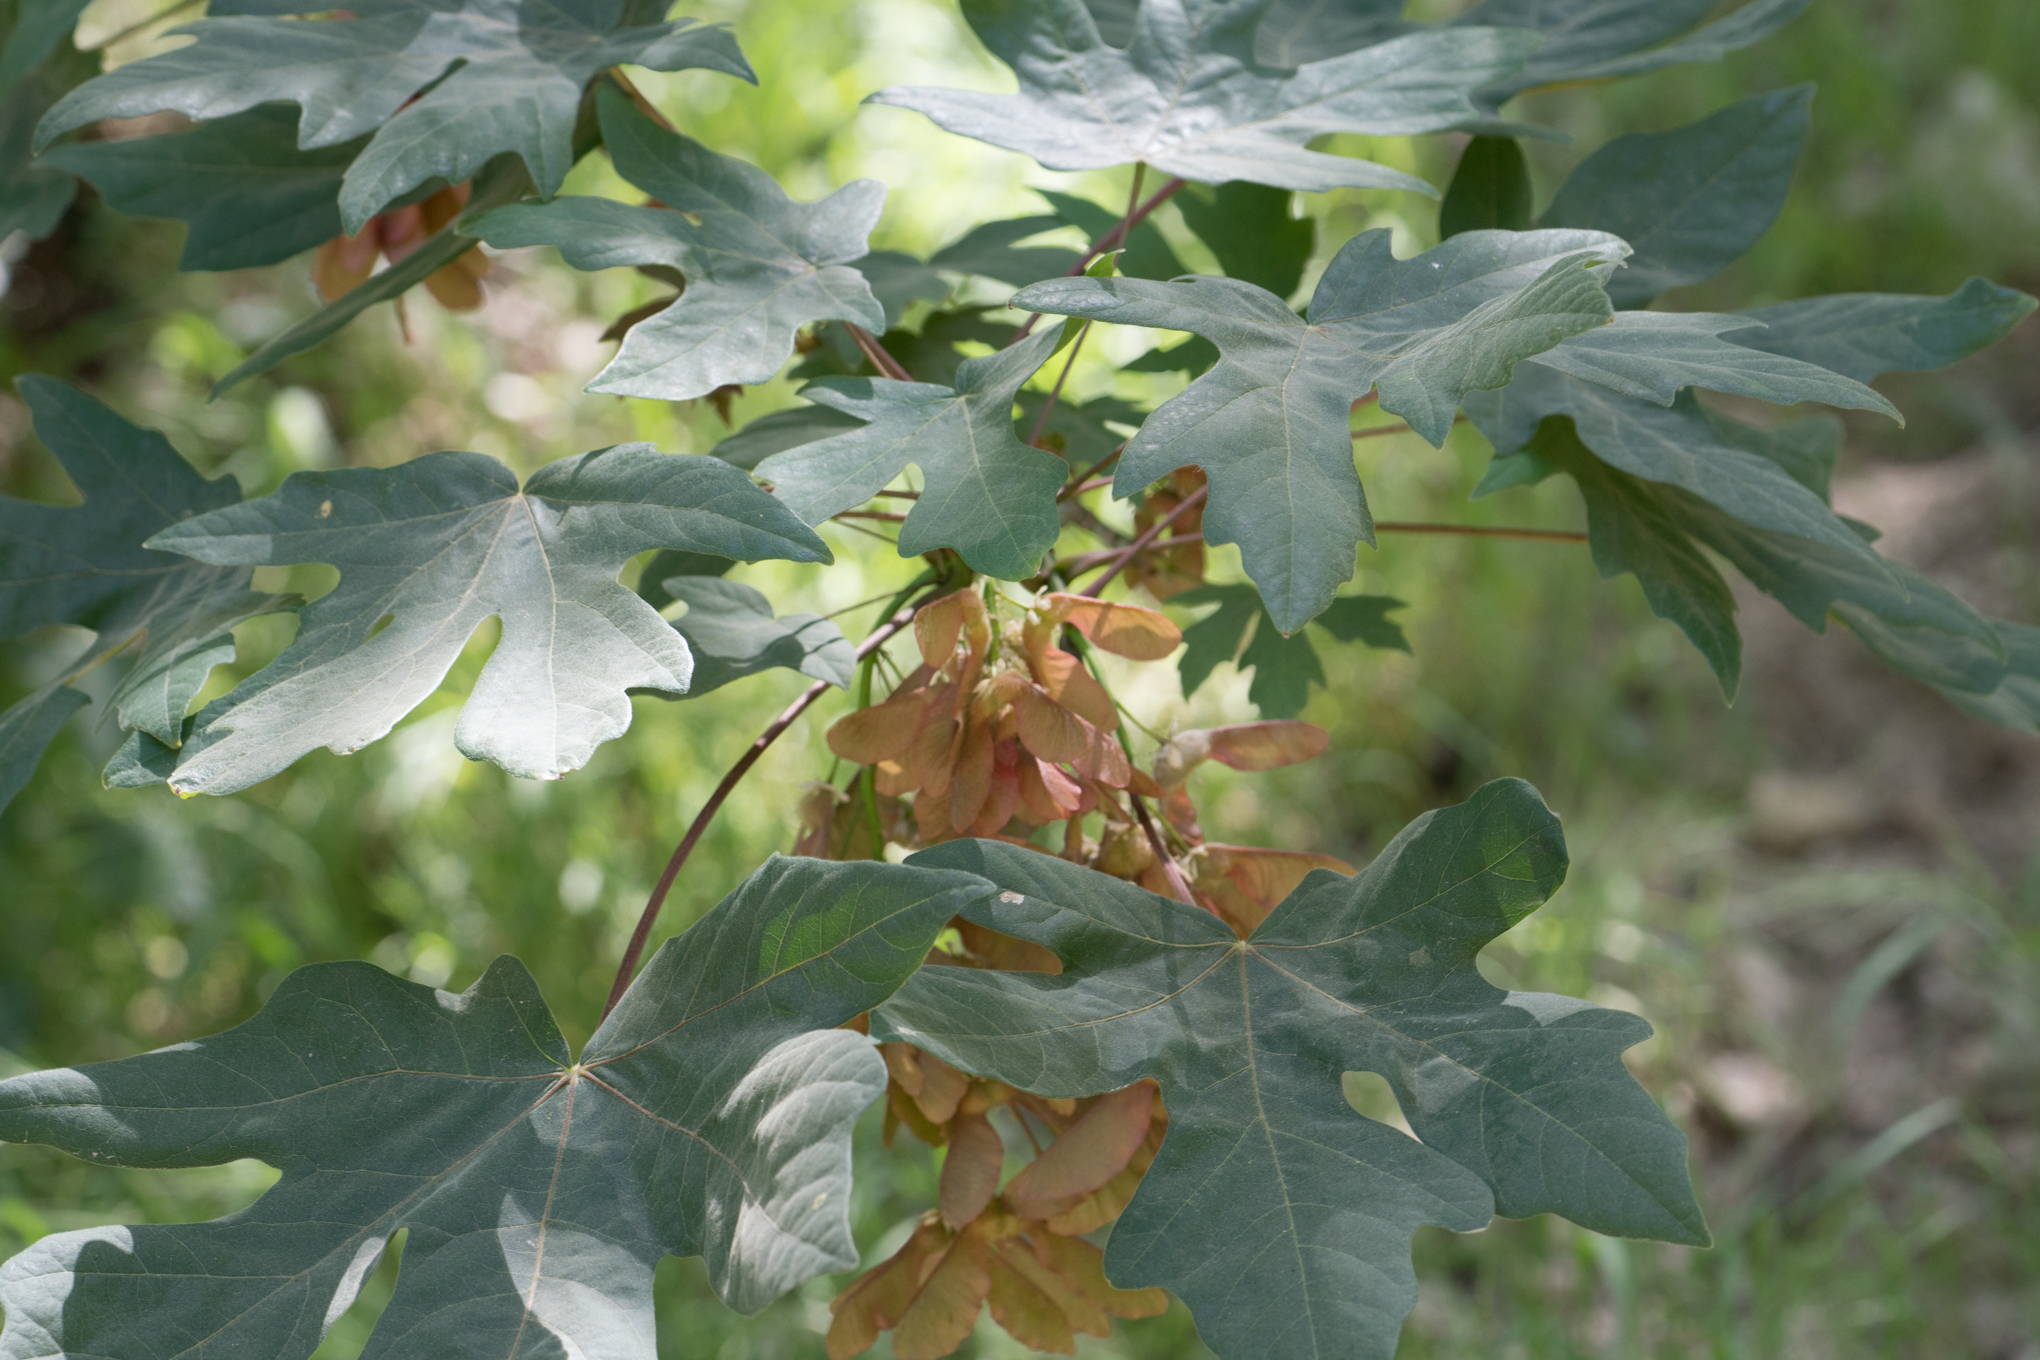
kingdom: Plantae
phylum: Tracheophyta
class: Magnoliopsida
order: Sapindales
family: Sapindaceae
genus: Acer
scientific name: Acer macrophyllum
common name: Oregon maple
